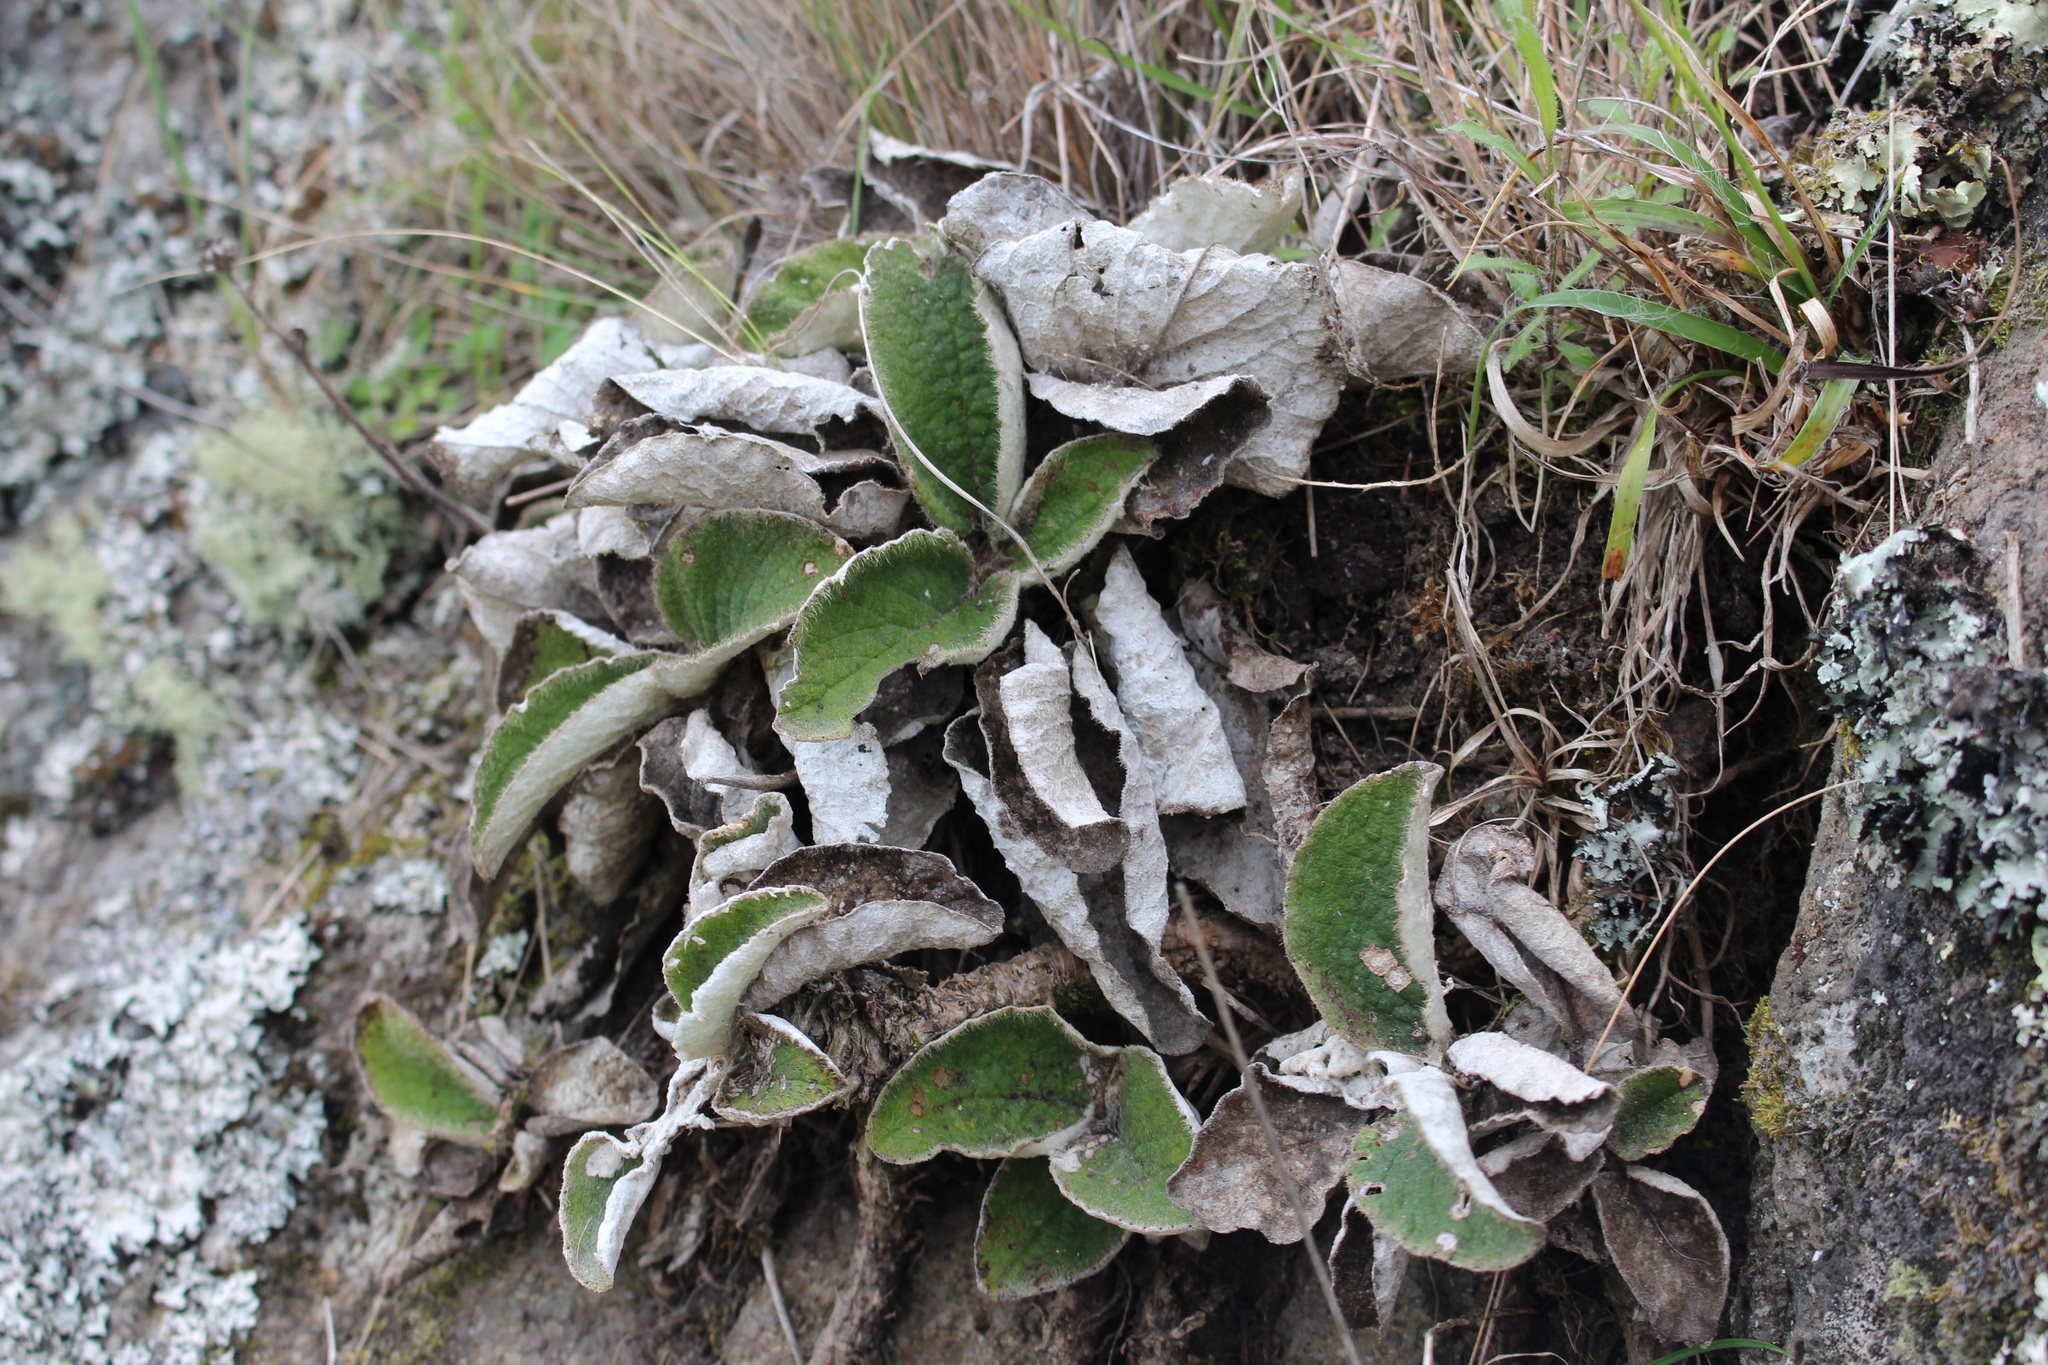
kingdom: Plantae
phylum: Tracheophyta
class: Magnoliopsida
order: Asterales
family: Asteraceae
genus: Brachyglottis
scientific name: Brachyglottis lagopus
